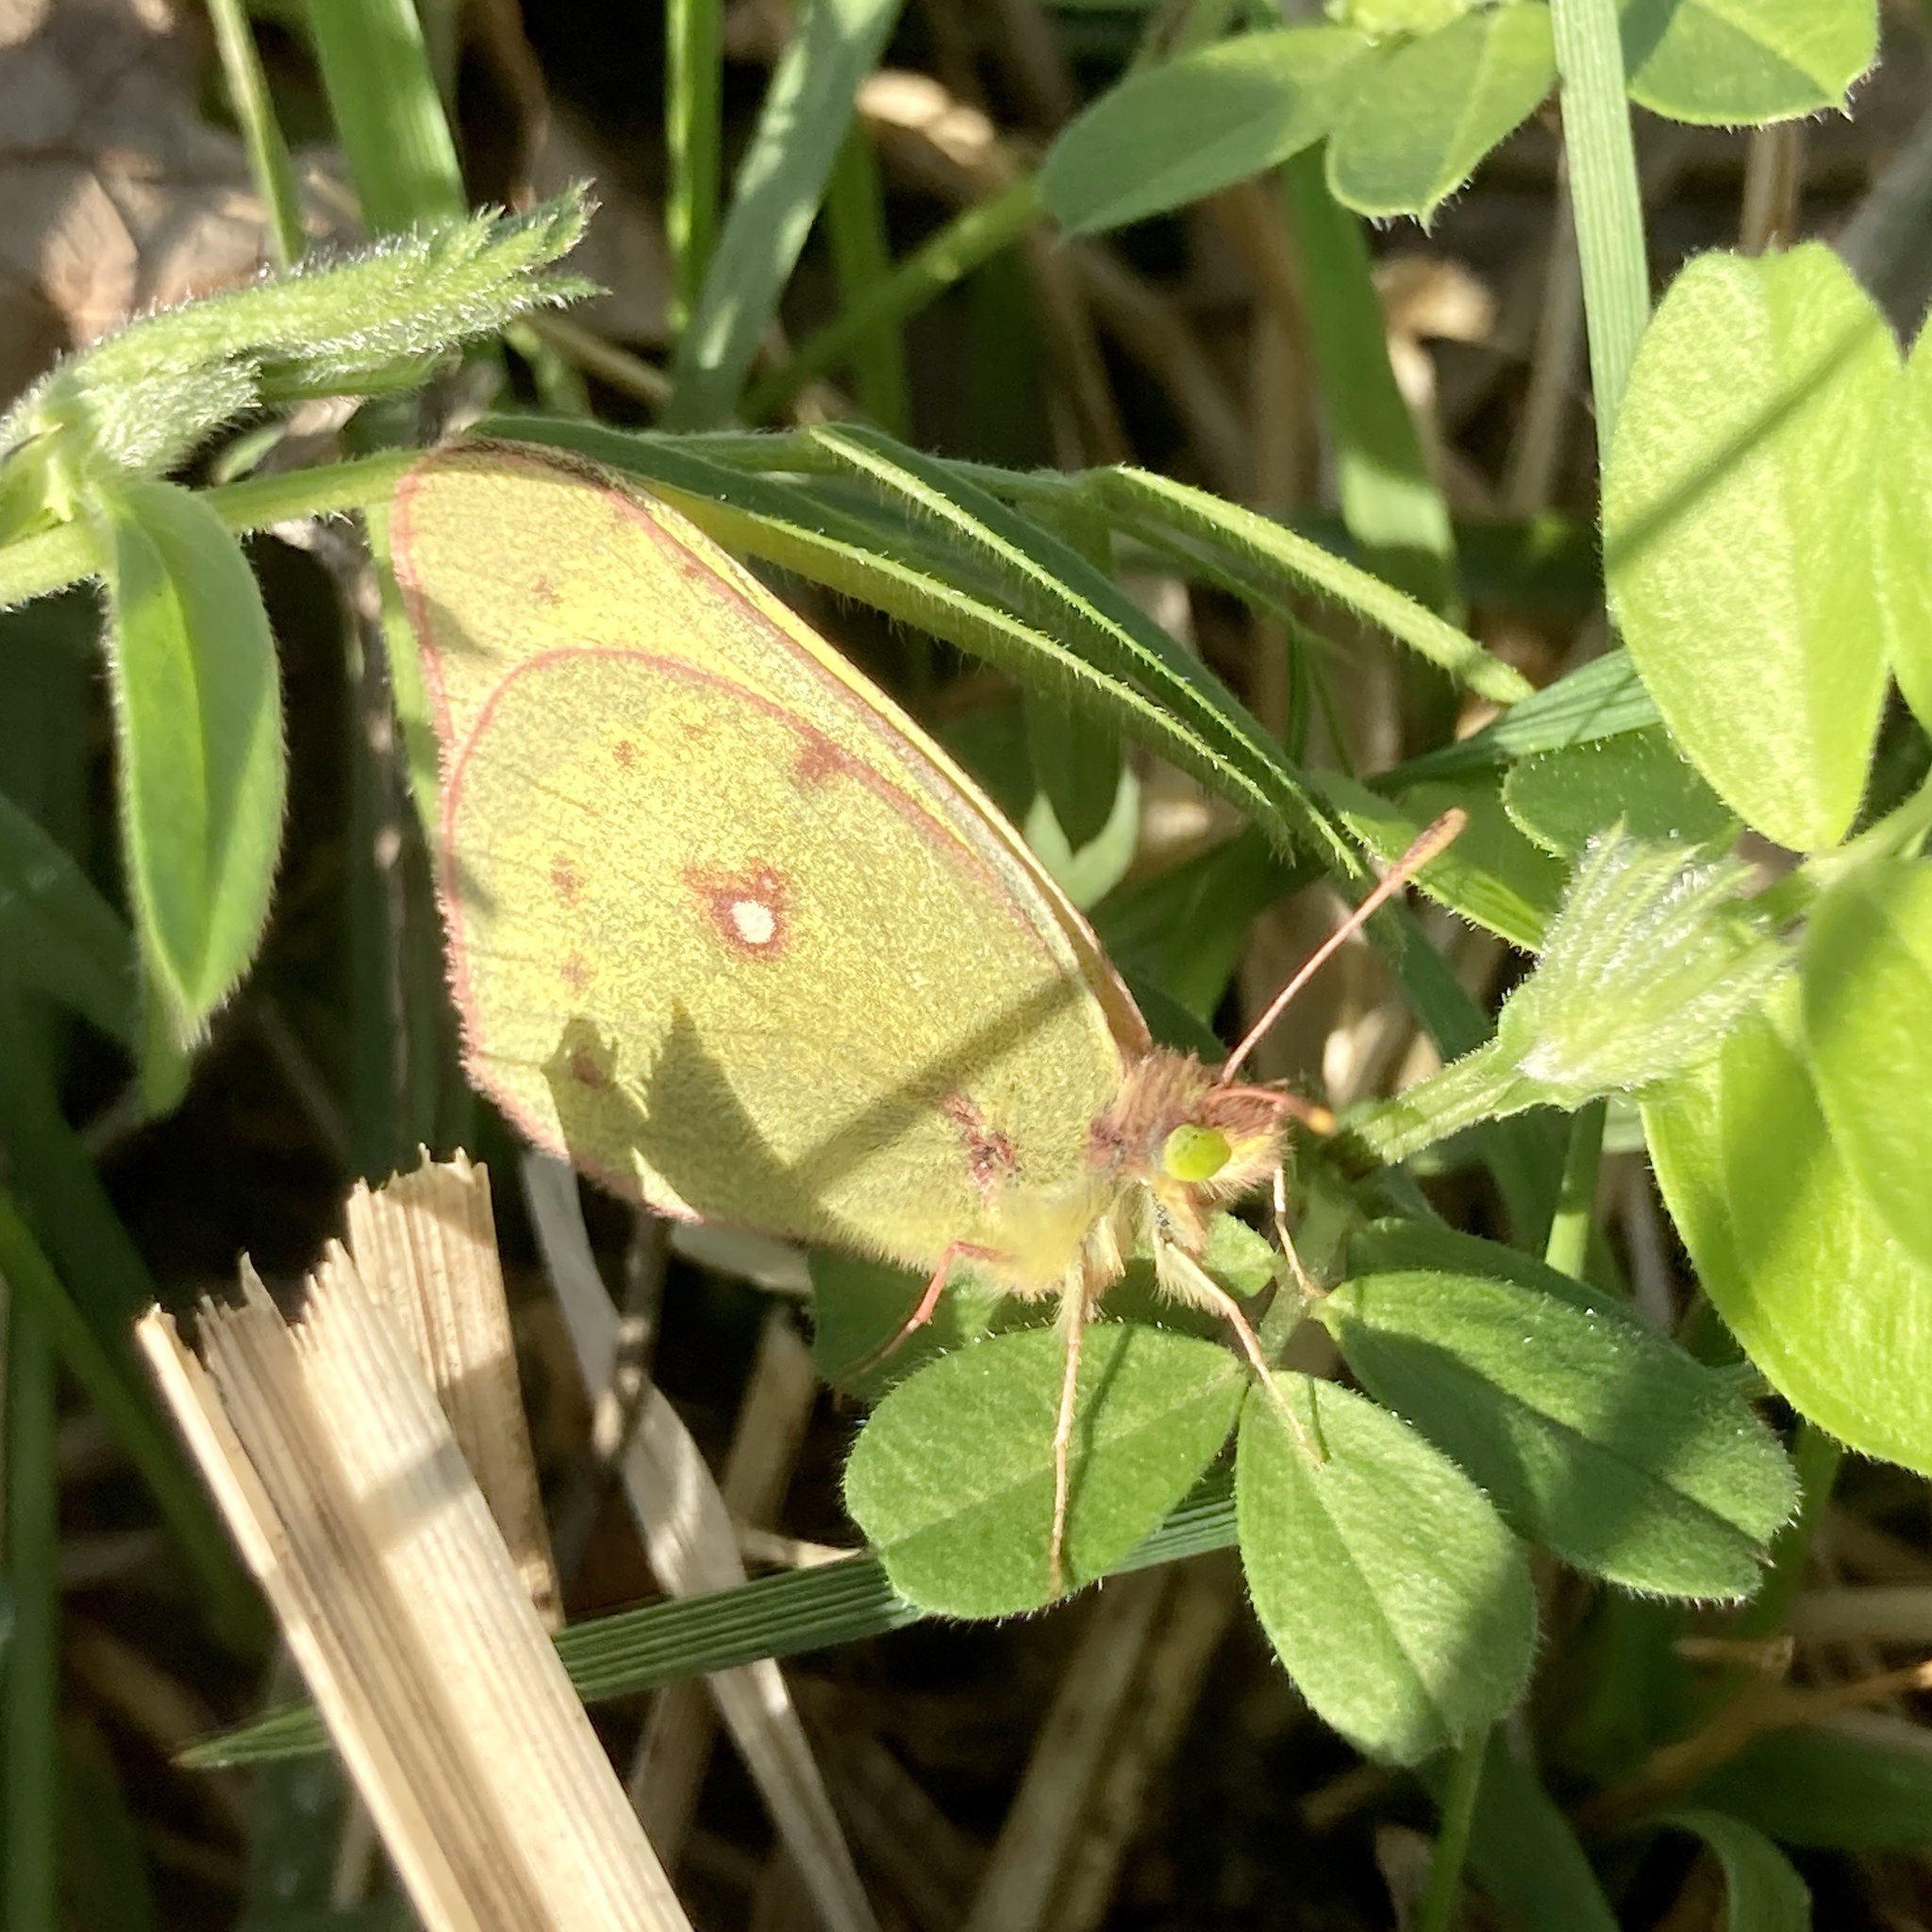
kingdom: Animalia
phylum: Arthropoda
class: Insecta
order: Lepidoptera
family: Pieridae
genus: Colias
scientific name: Colias philodice
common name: Clouded sulphur
